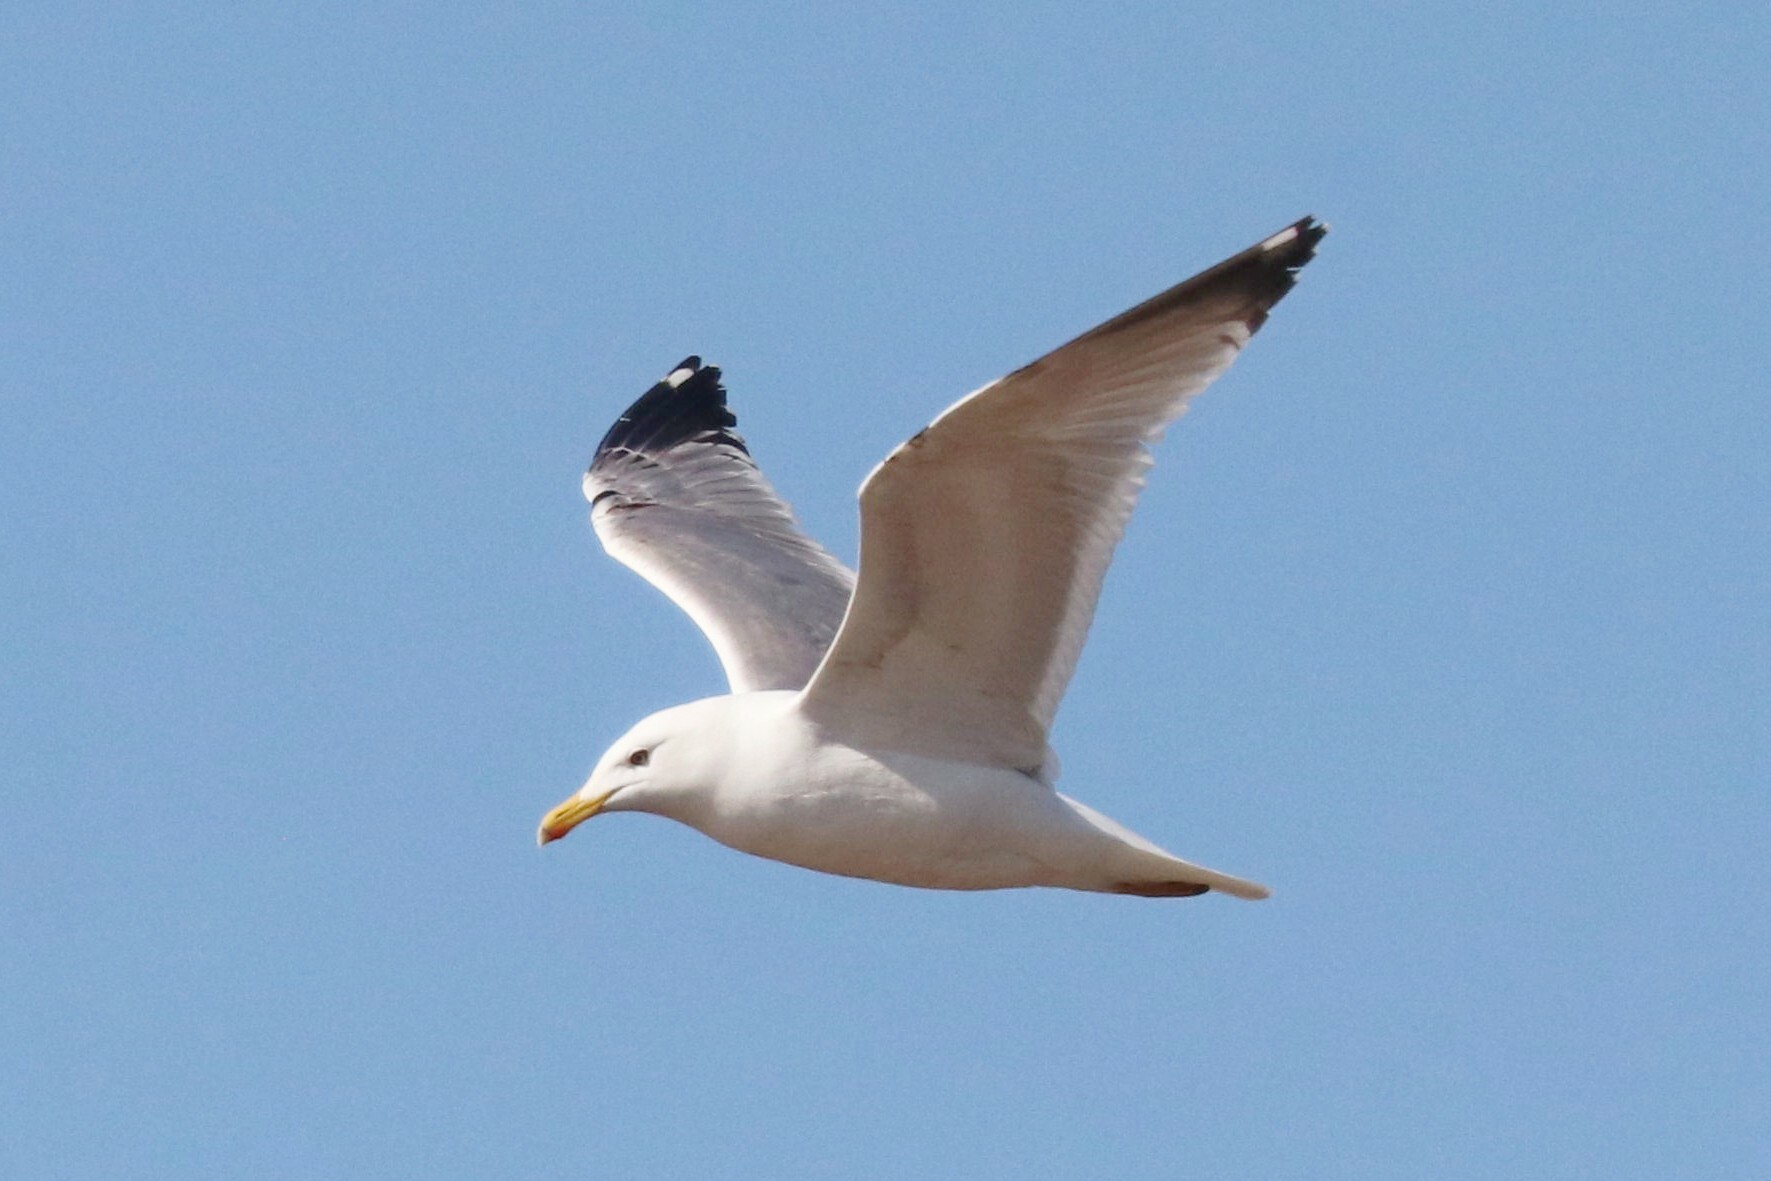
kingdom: Animalia
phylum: Chordata
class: Aves
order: Charadriiformes
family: Laridae
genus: Larus
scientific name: Larus fuscus
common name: Lesser black-backed gull
